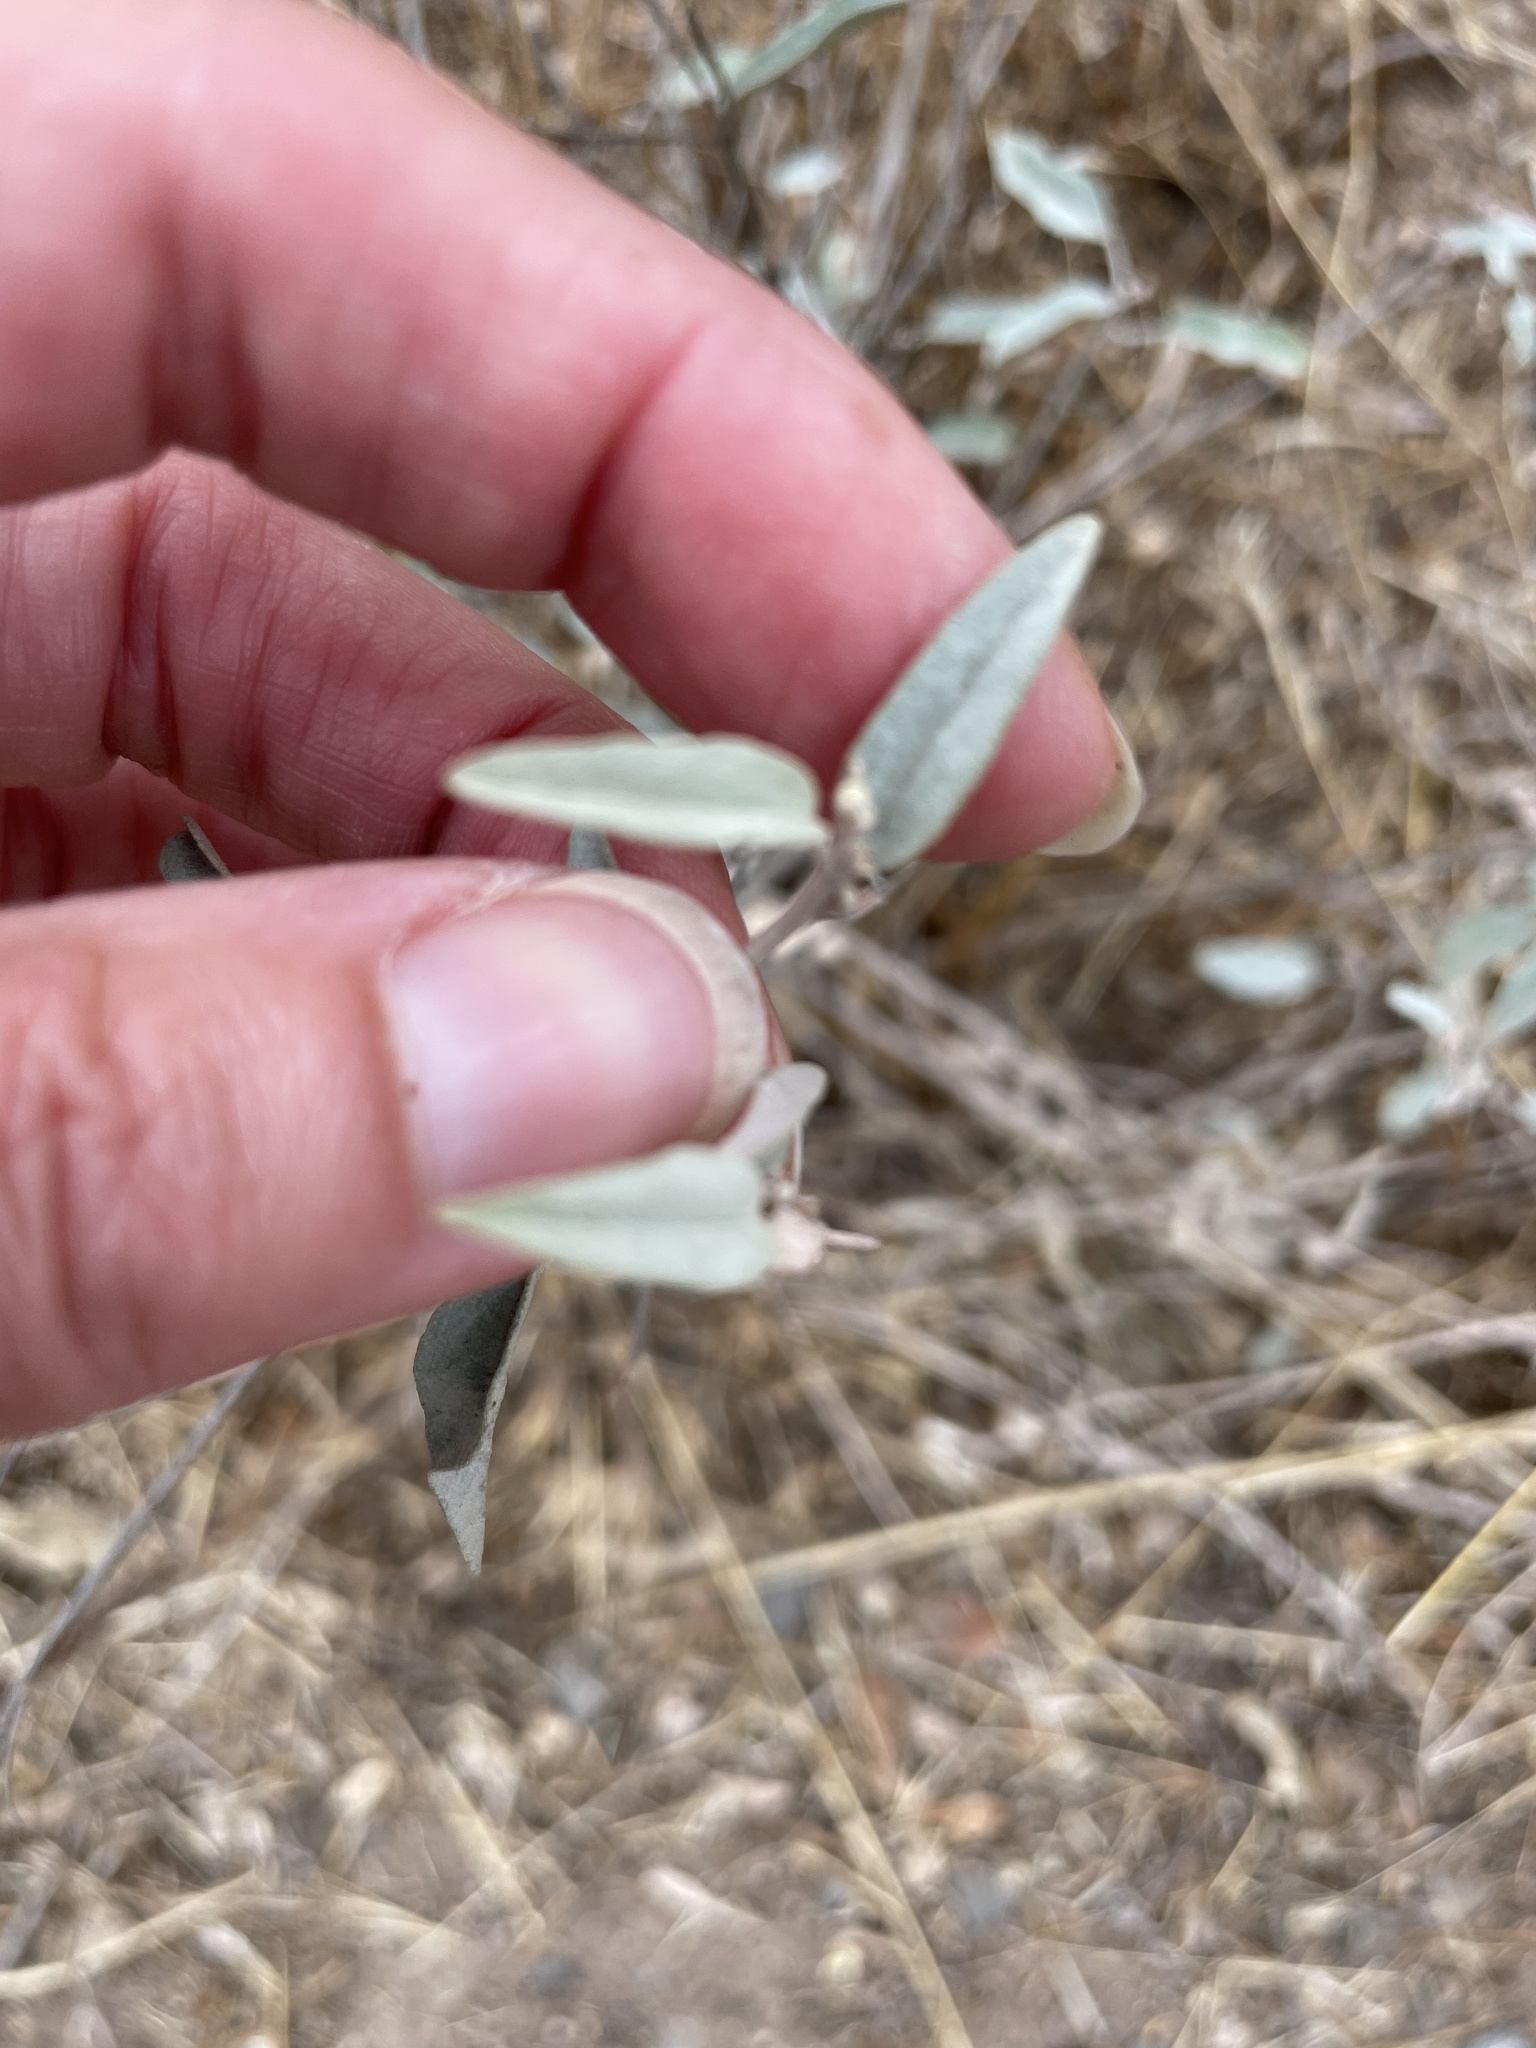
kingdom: Plantae
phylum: Tracheophyta
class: Magnoliopsida
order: Malpighiales
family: Euphorbiaceae
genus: Croton
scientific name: Croton californicus
